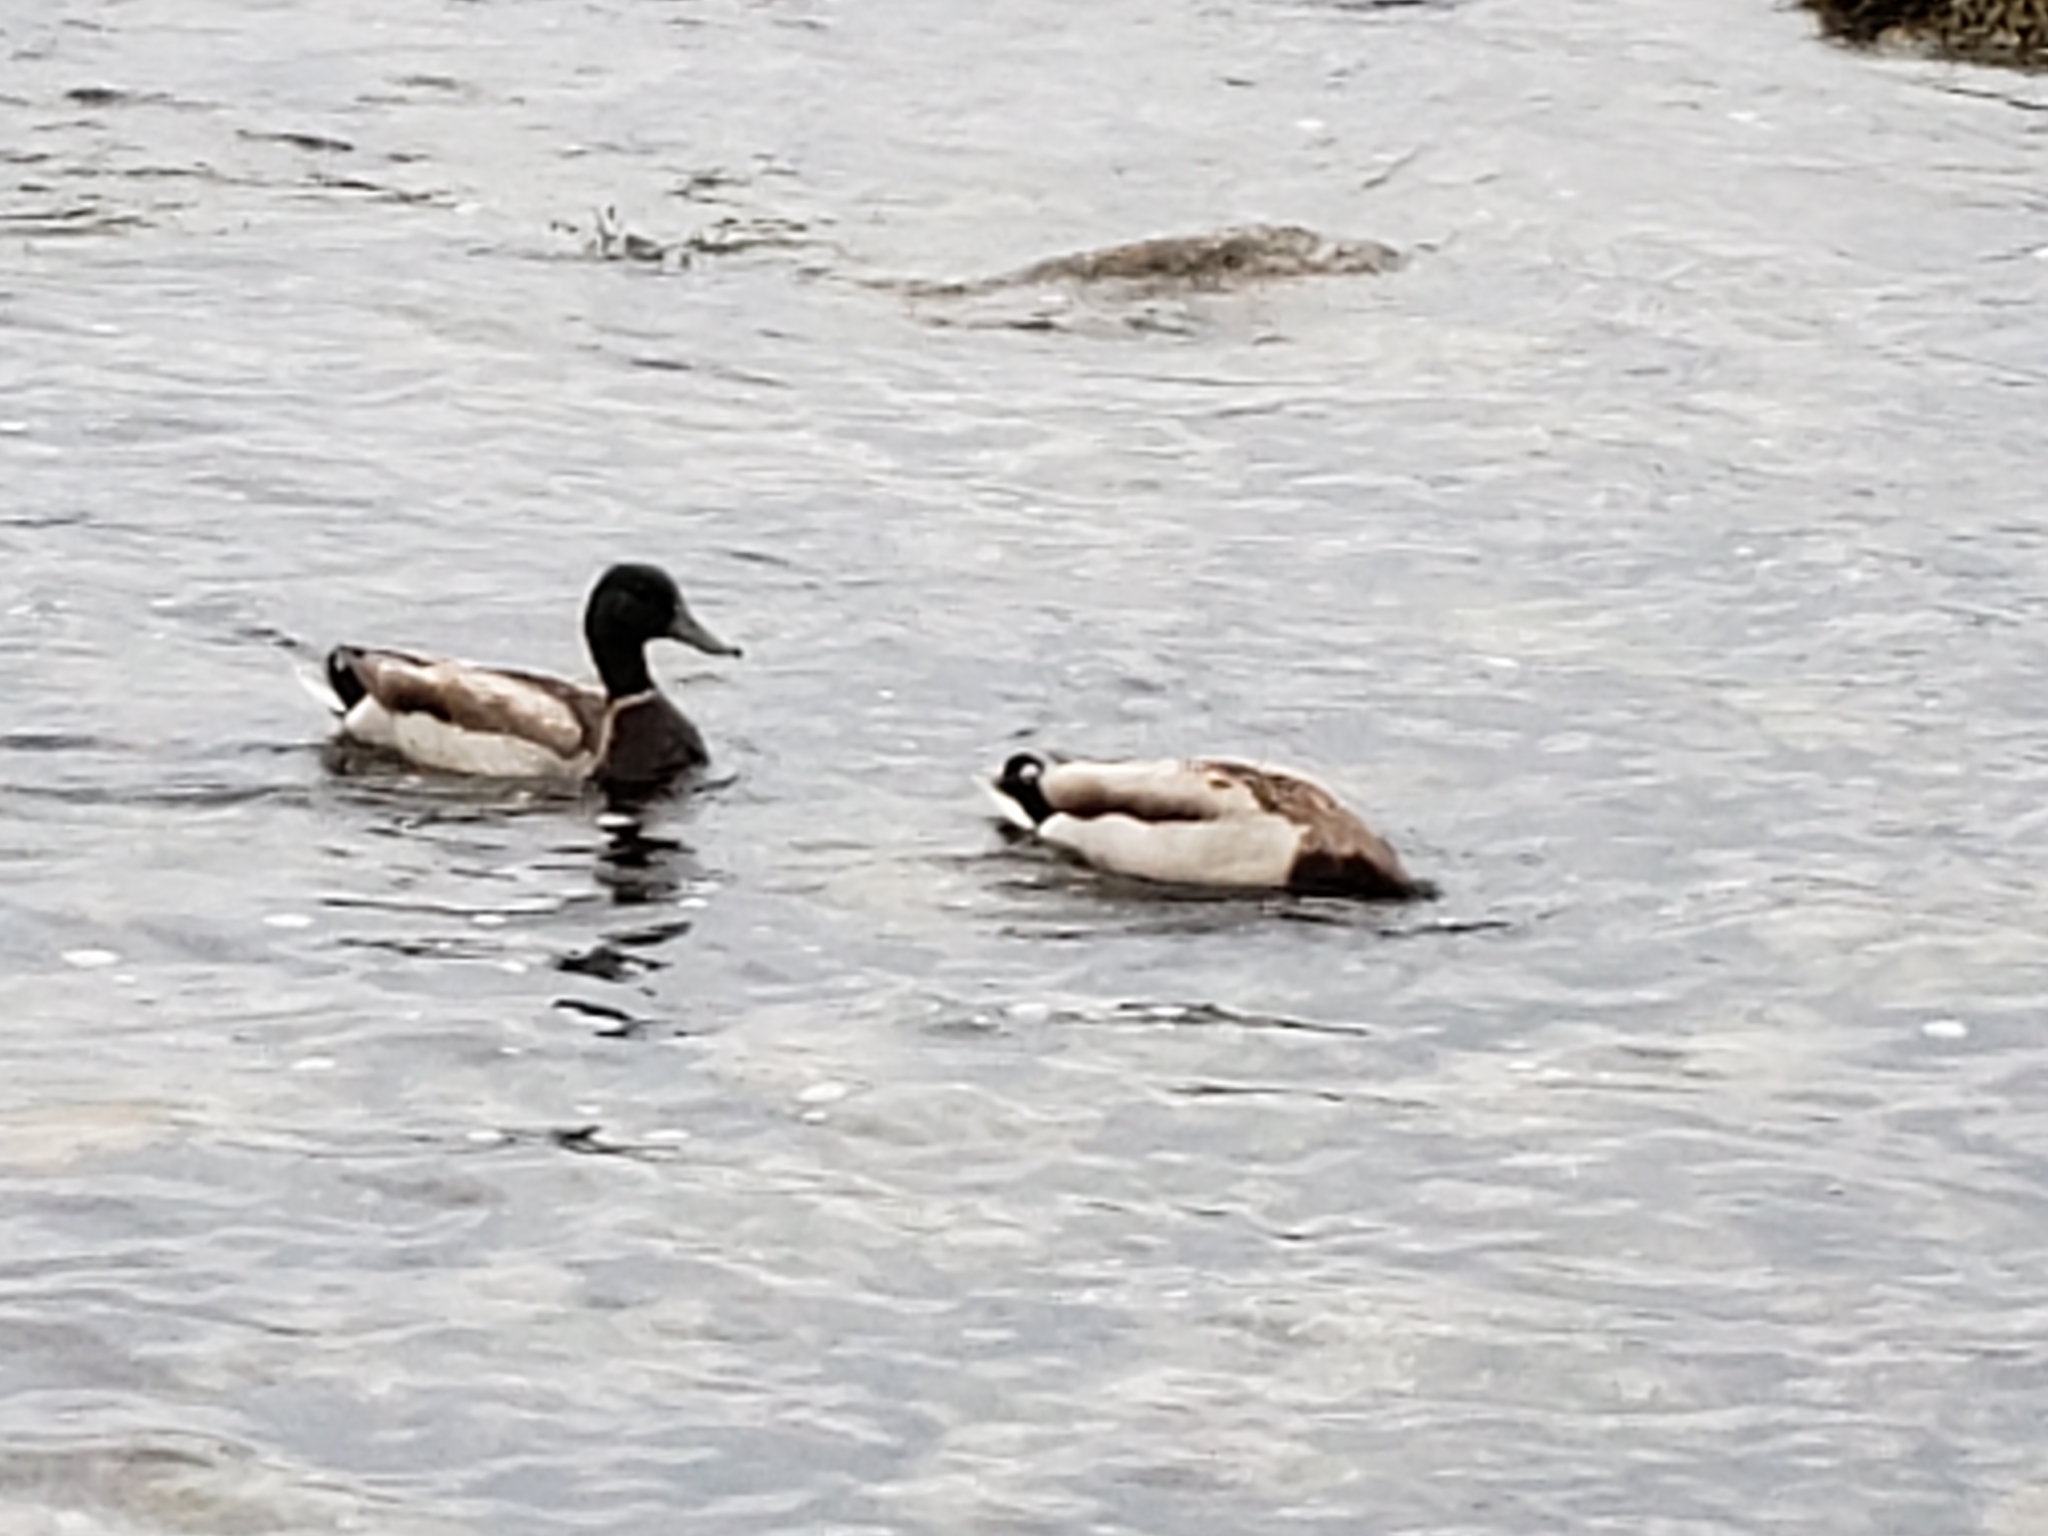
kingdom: Animalia
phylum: Chordata
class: Aves
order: Anseriformes
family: Anatidae
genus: Anas
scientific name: Anas platyrhynchos
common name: Mallard
